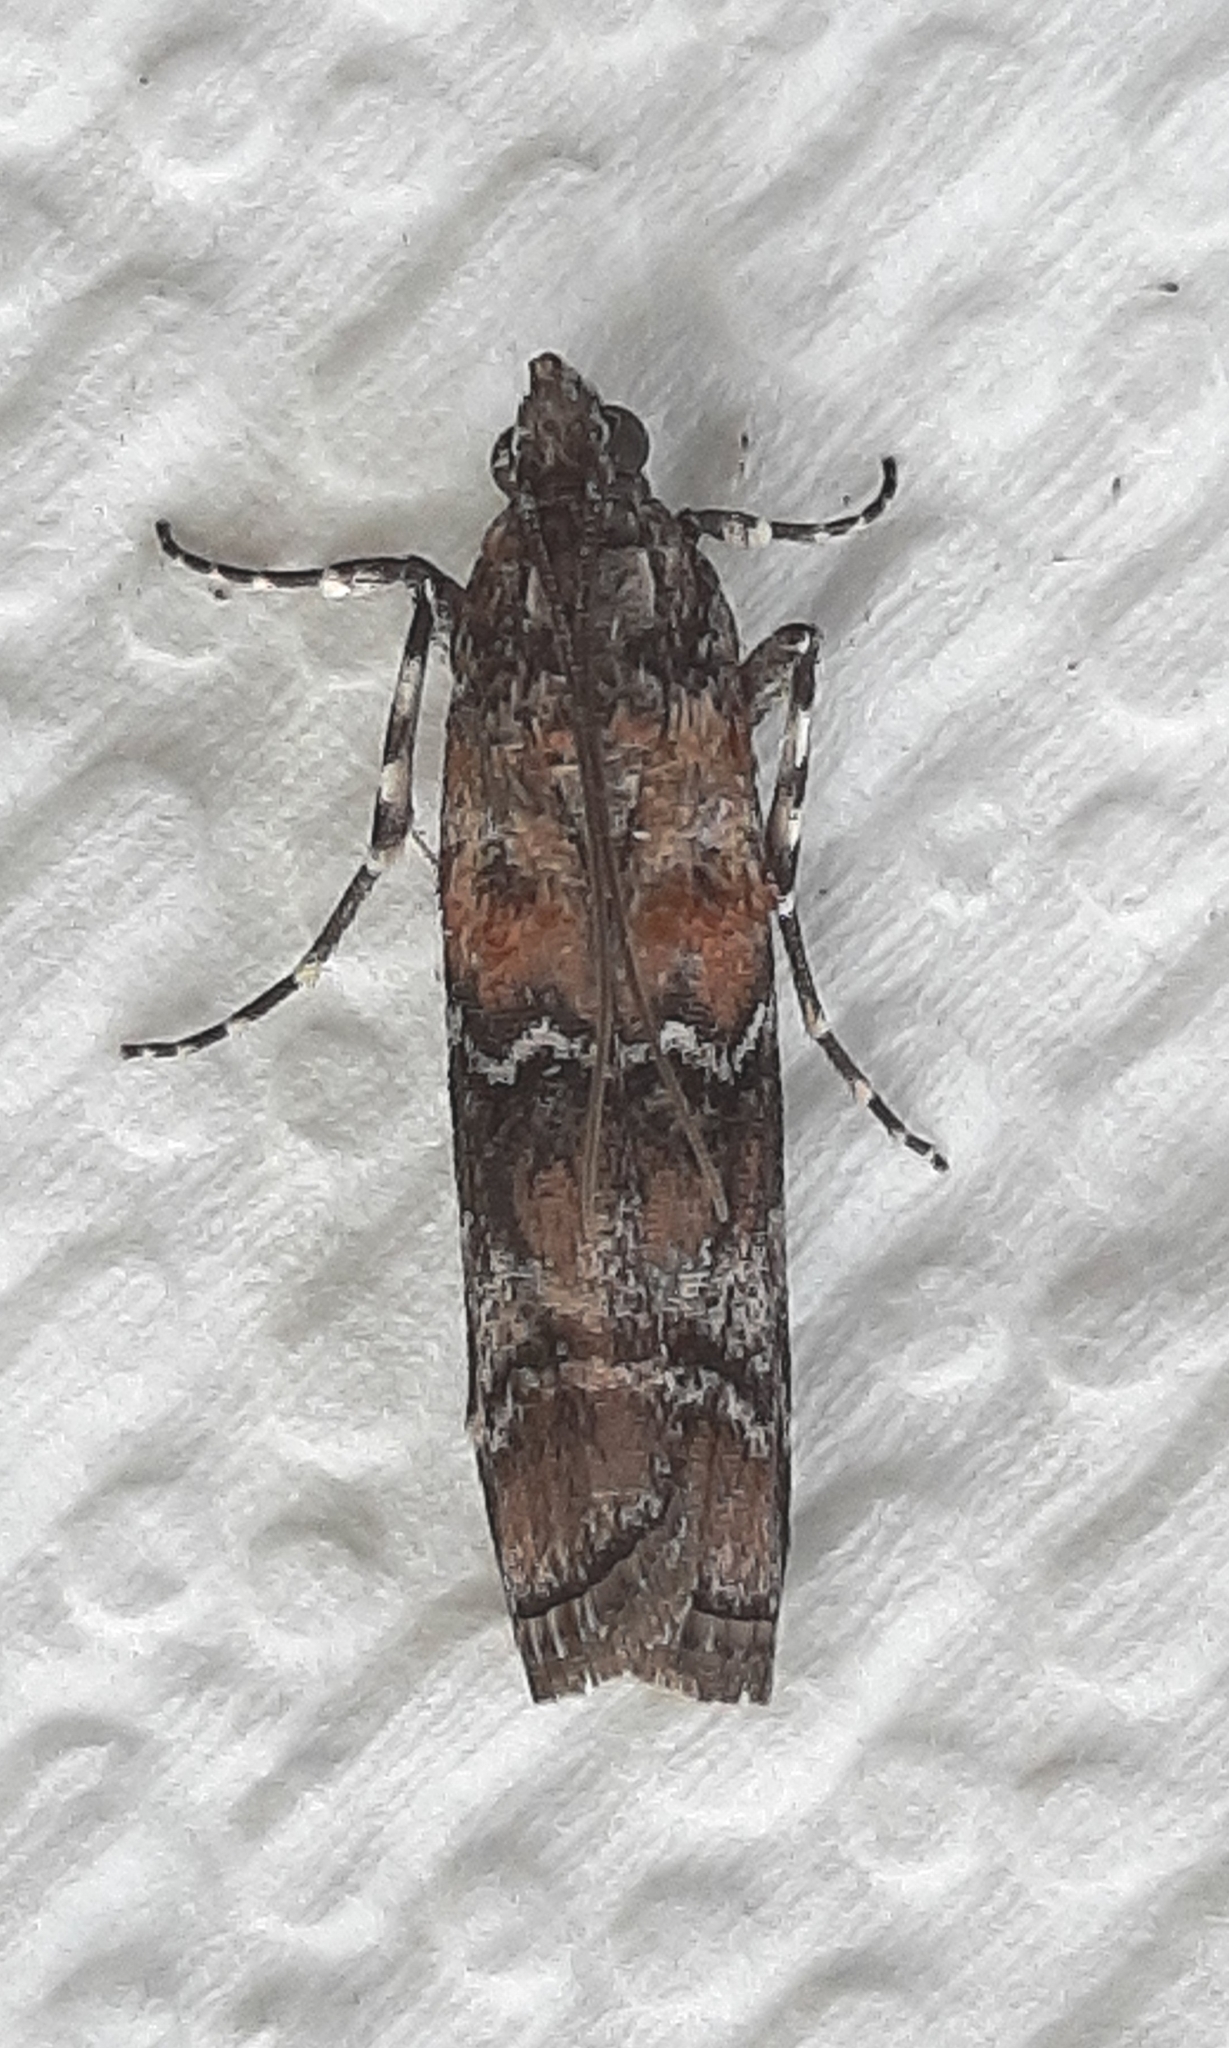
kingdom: Animalia
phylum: Arthropoda
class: Insecta
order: Lepidoptera
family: Pyralidae
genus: Dioryctria
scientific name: Dioryctria zimmermani
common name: Zimmerman pine moth
